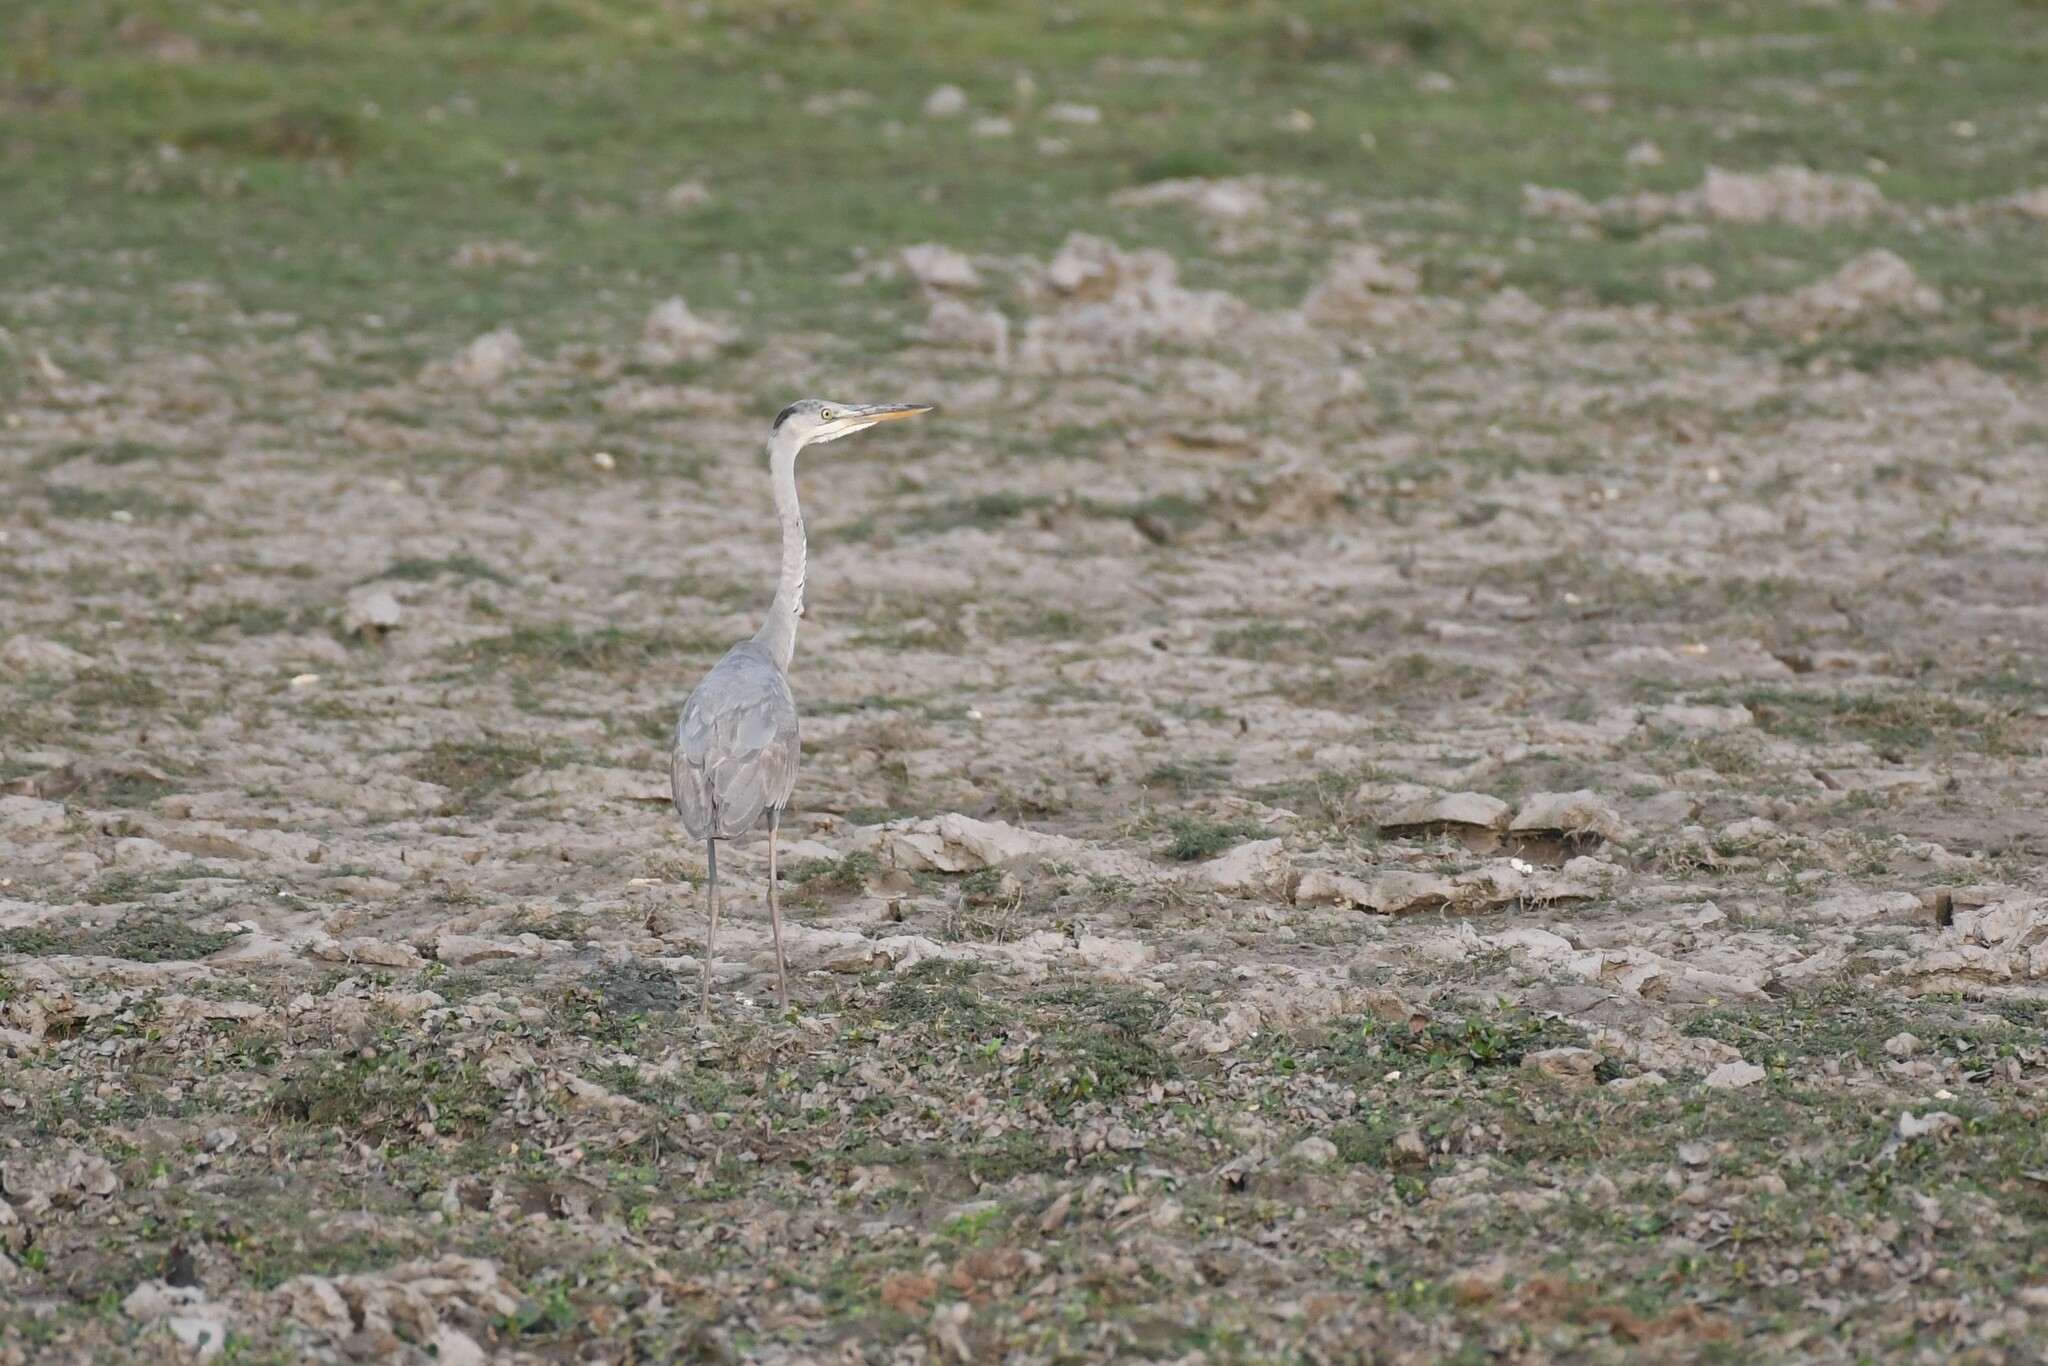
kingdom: Animalia
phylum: Chordata
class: Aves
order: Pelecaniformes
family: Ardeidae
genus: Ardea
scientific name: Ardea cinerea
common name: Grey heron
